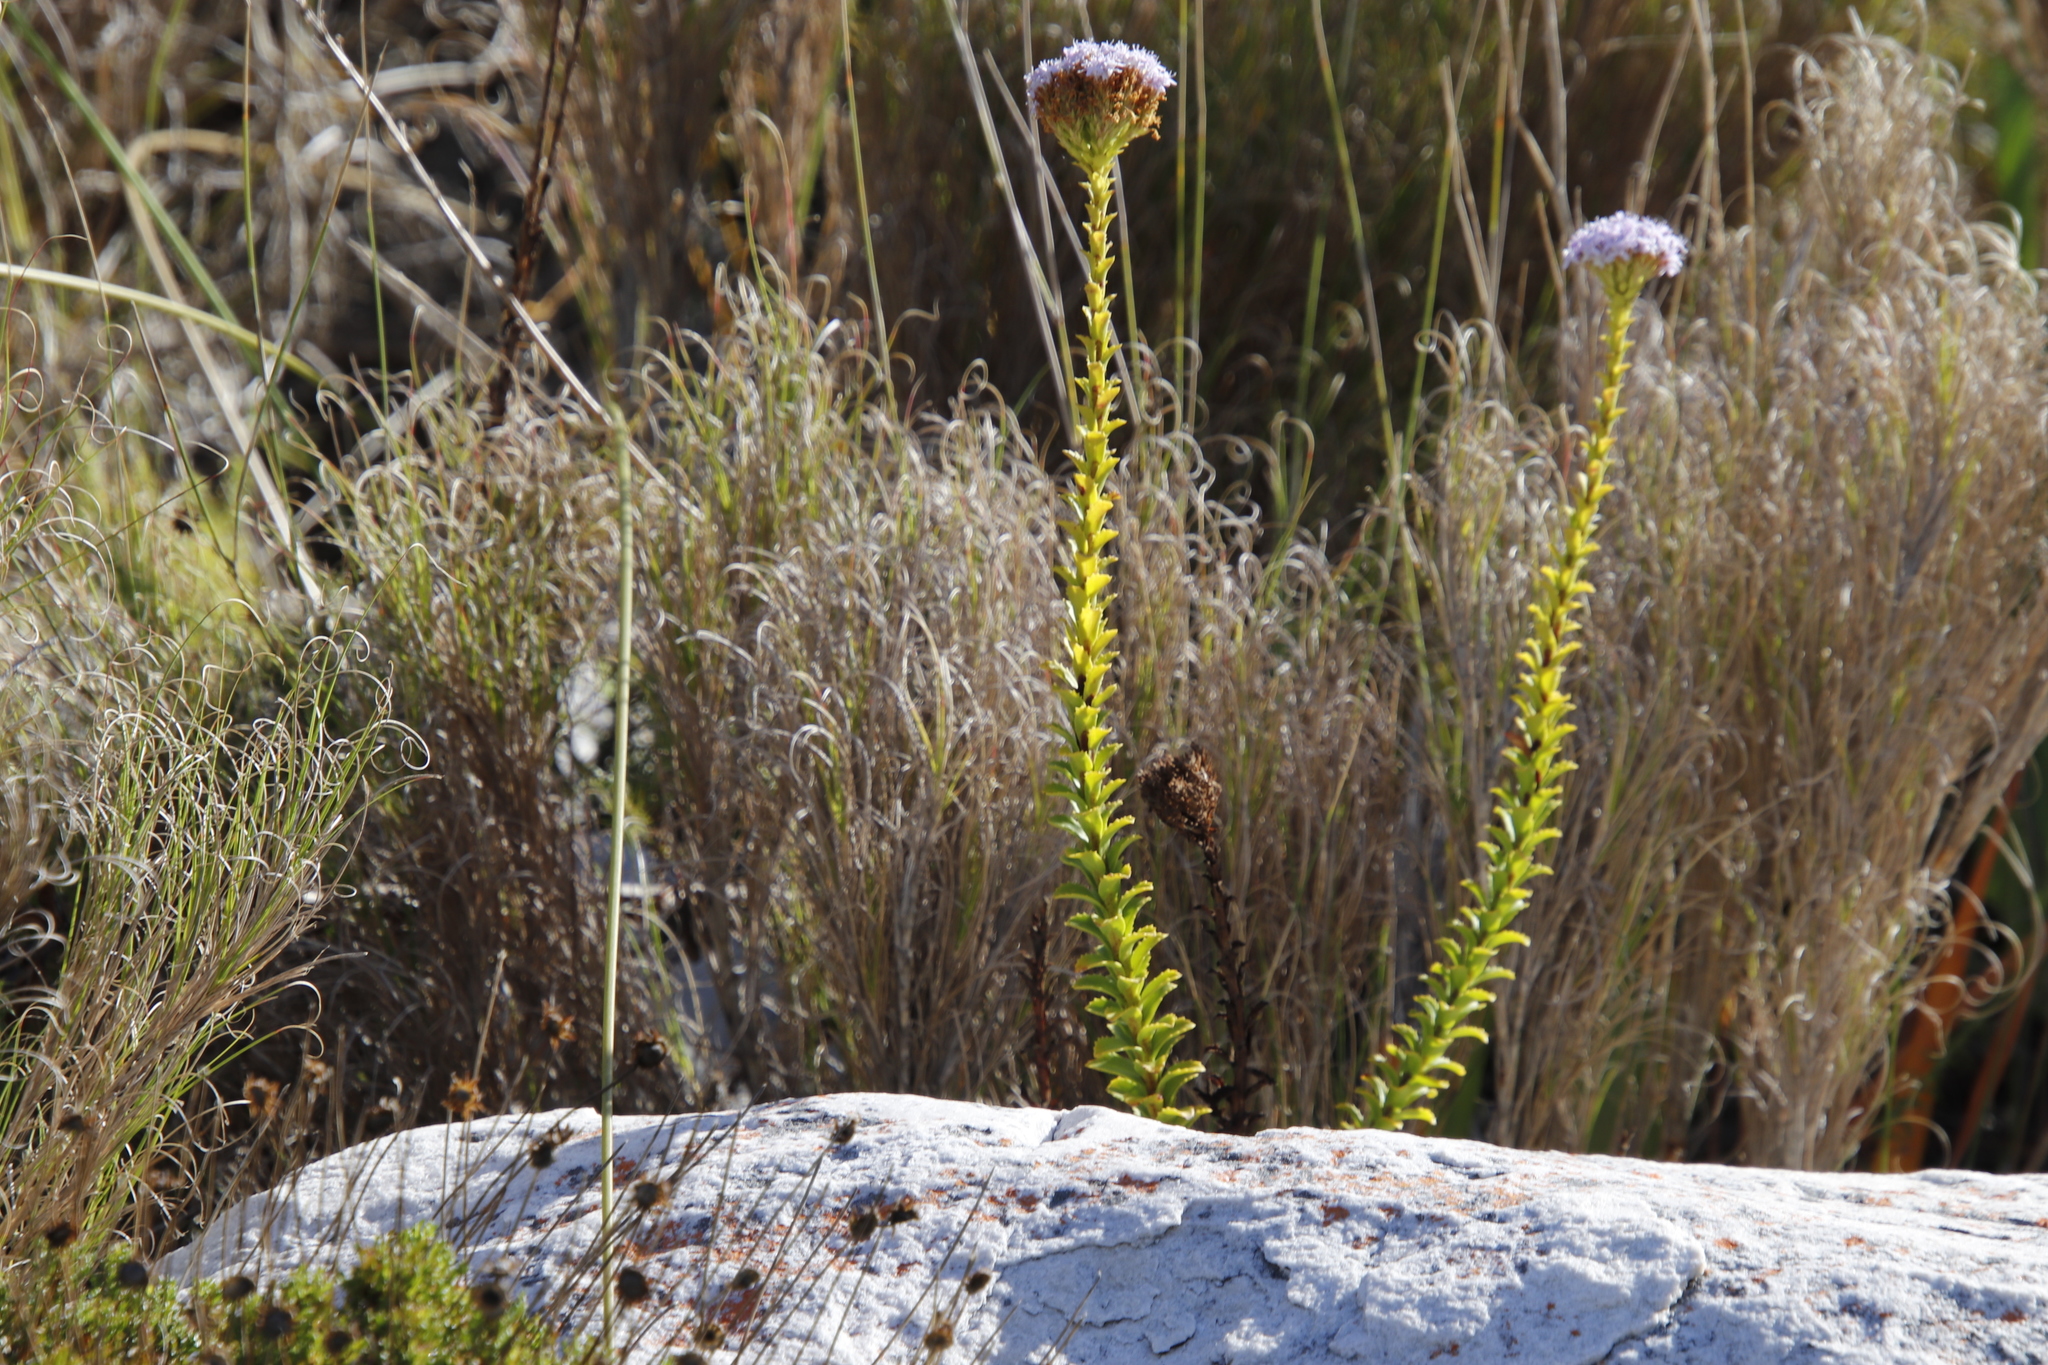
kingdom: Plantae
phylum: Tracheophyta
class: Magnoliopsida
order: Lamiales
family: Scrophulariaceae
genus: Pseudoselago
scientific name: Pseudoselago serrata
